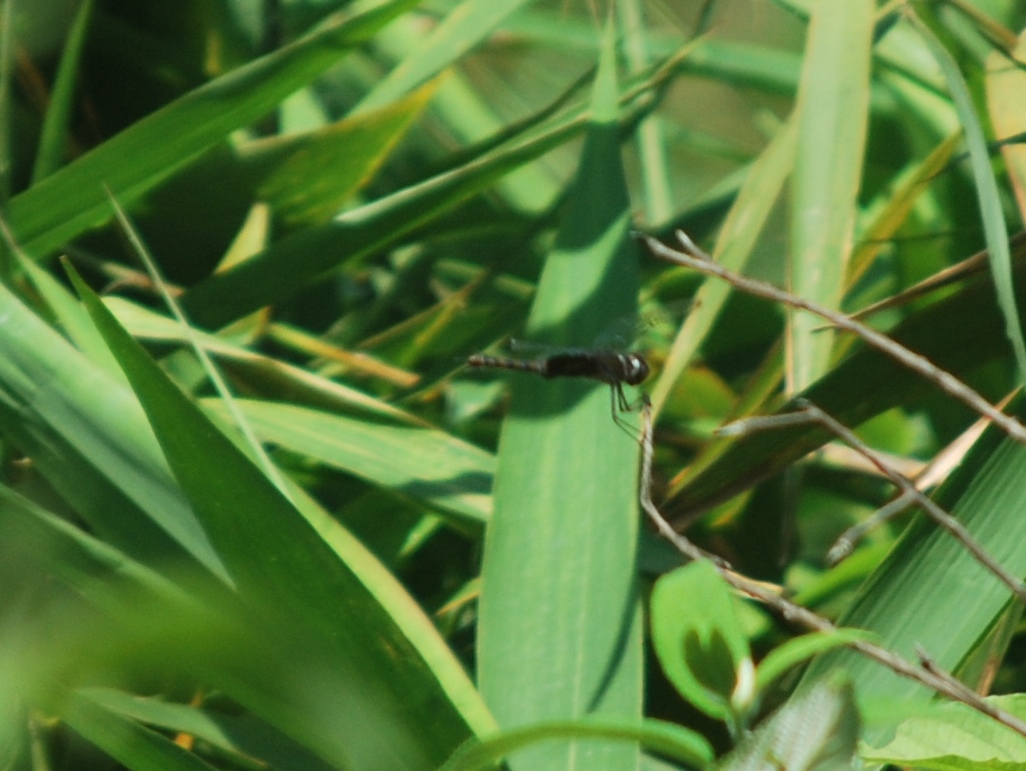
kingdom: Animalia
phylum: Arthropoda
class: Insecta
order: Odonata
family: Libellulidae
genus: Tramea
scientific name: Tramea limbata
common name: Ferruginous glider
